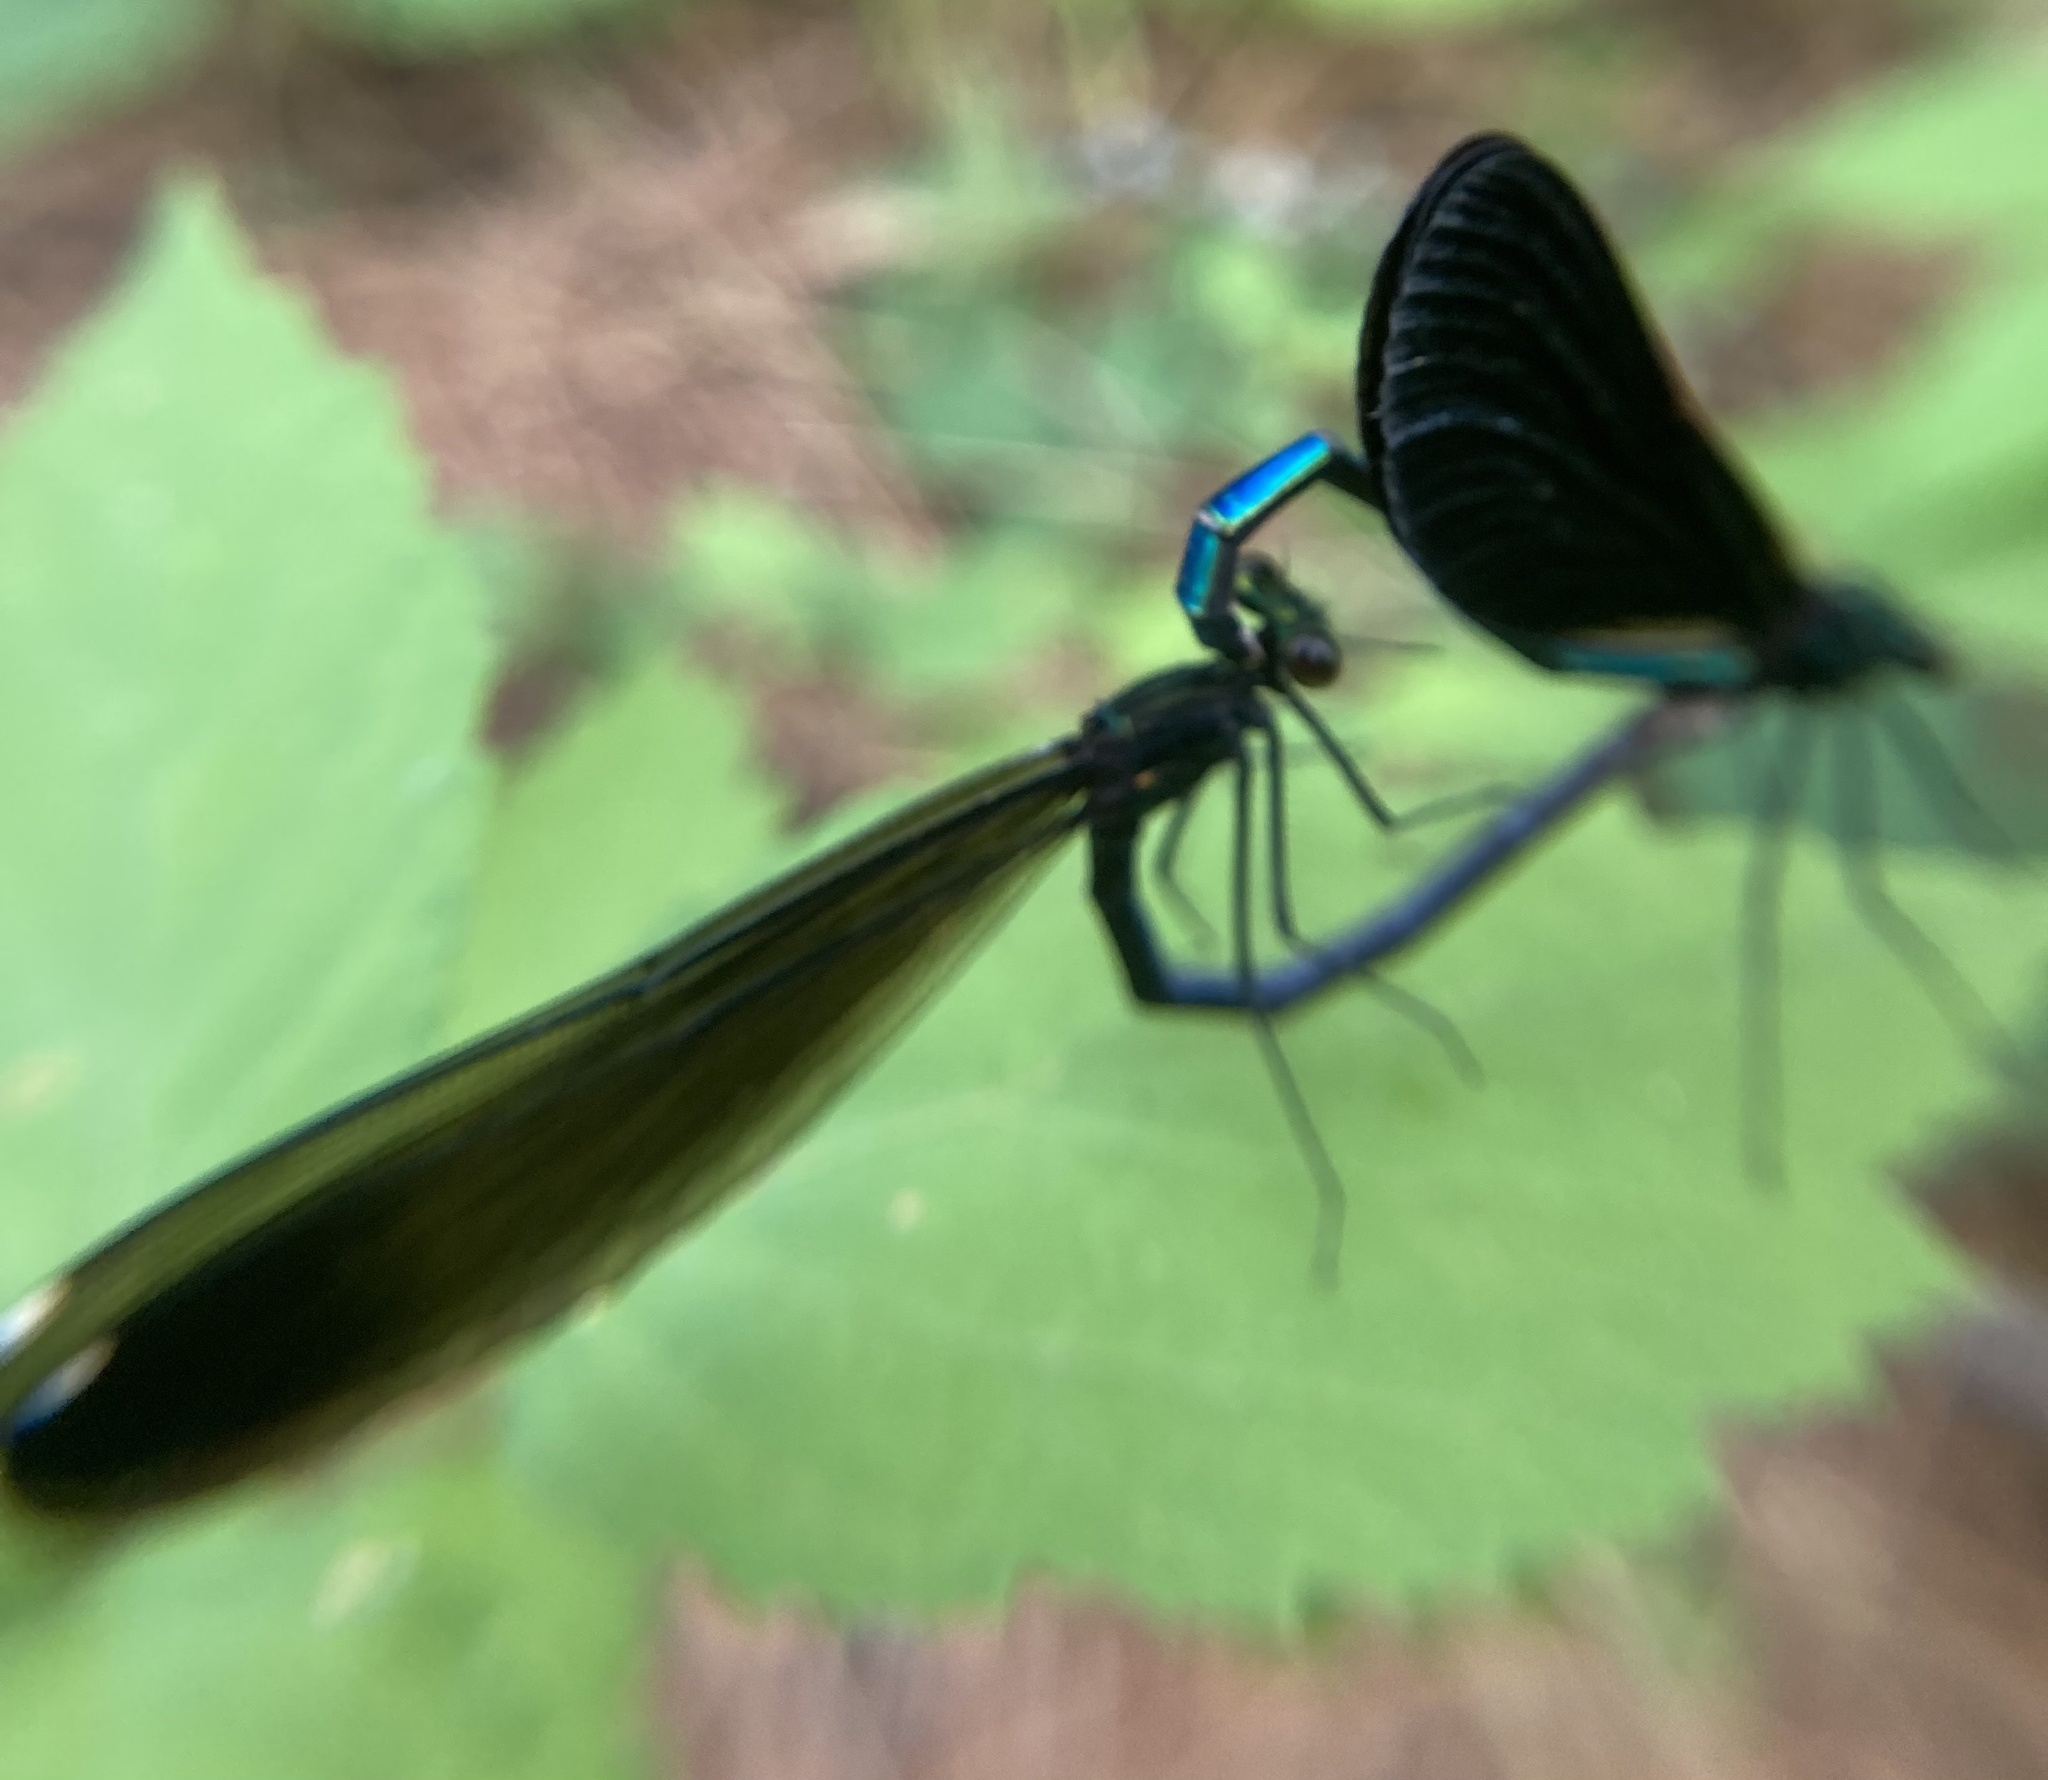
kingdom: Animalia
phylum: Arthropoda
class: Insecta
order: Odonata
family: Calopterygidae
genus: Calopteryx
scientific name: Calopteryx maculata
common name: Ebony jewelwing
